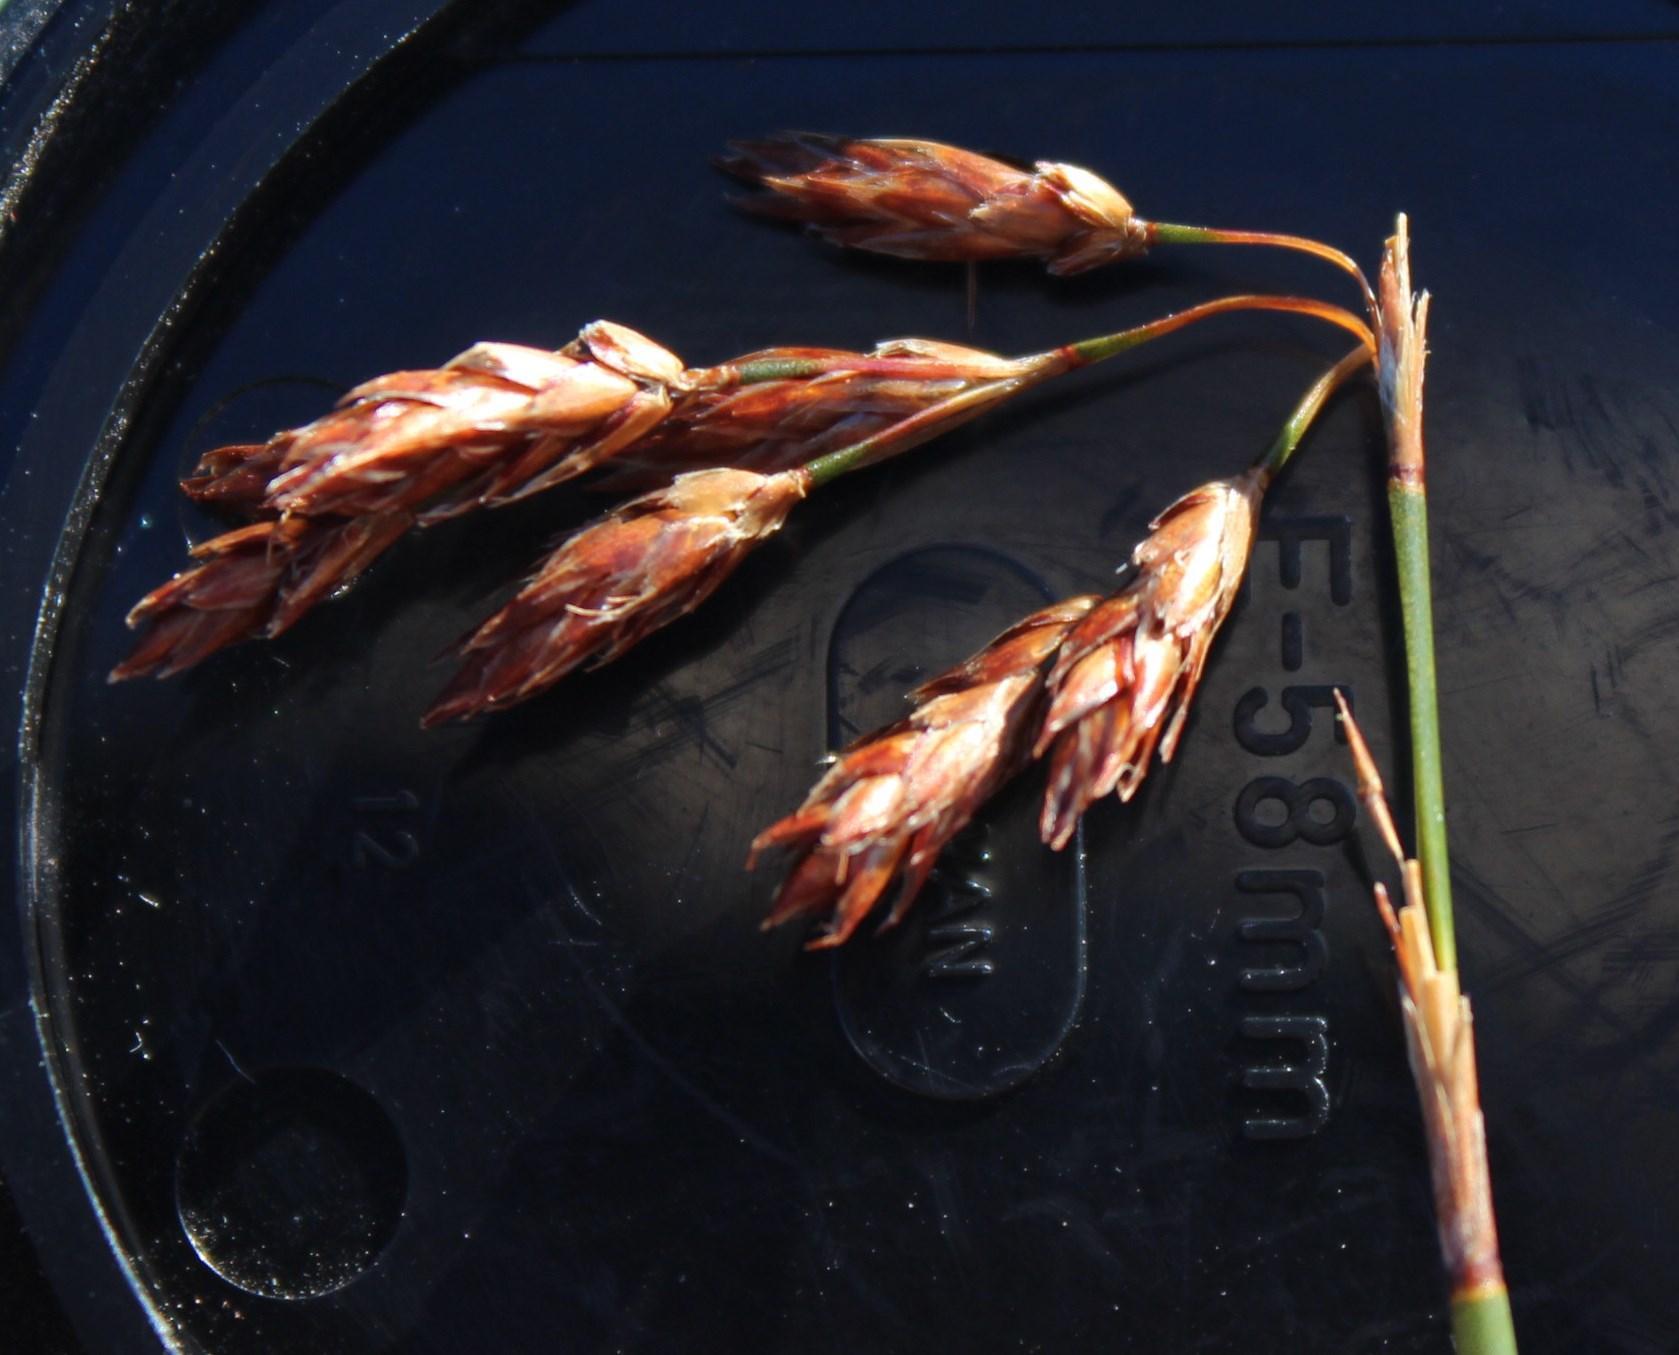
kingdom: Plantae
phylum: Tracheophyta
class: Liliopsida
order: Poales
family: Restionaceae
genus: Thamnochortus
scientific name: Thamnochortus levynsiae
